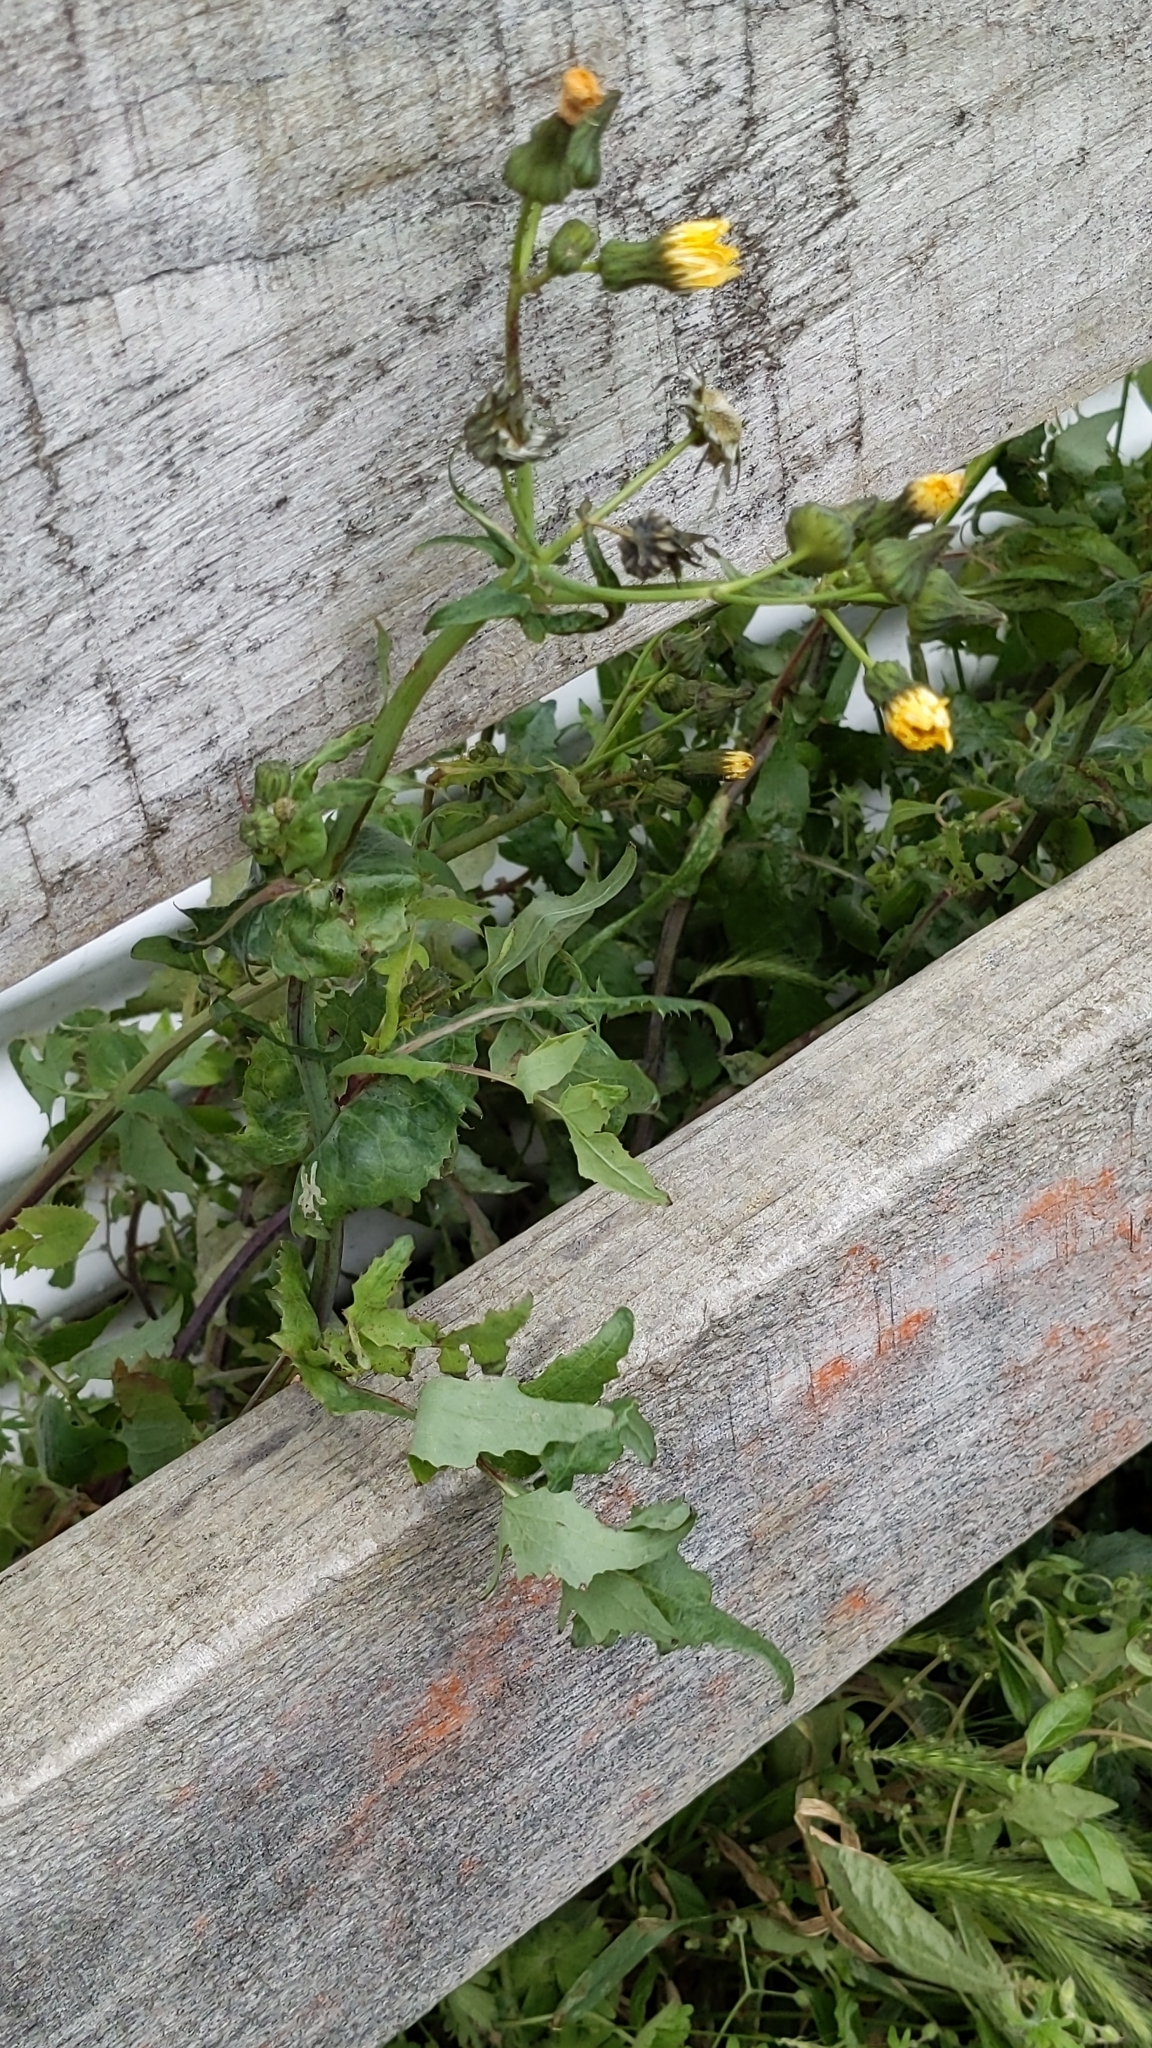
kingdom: Plantae
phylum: Tracheophyta
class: Magnoliopsida
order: Asterales
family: Asteraceae
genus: Sonchus
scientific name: Sonchus oleraceus
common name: Common sowthistle
